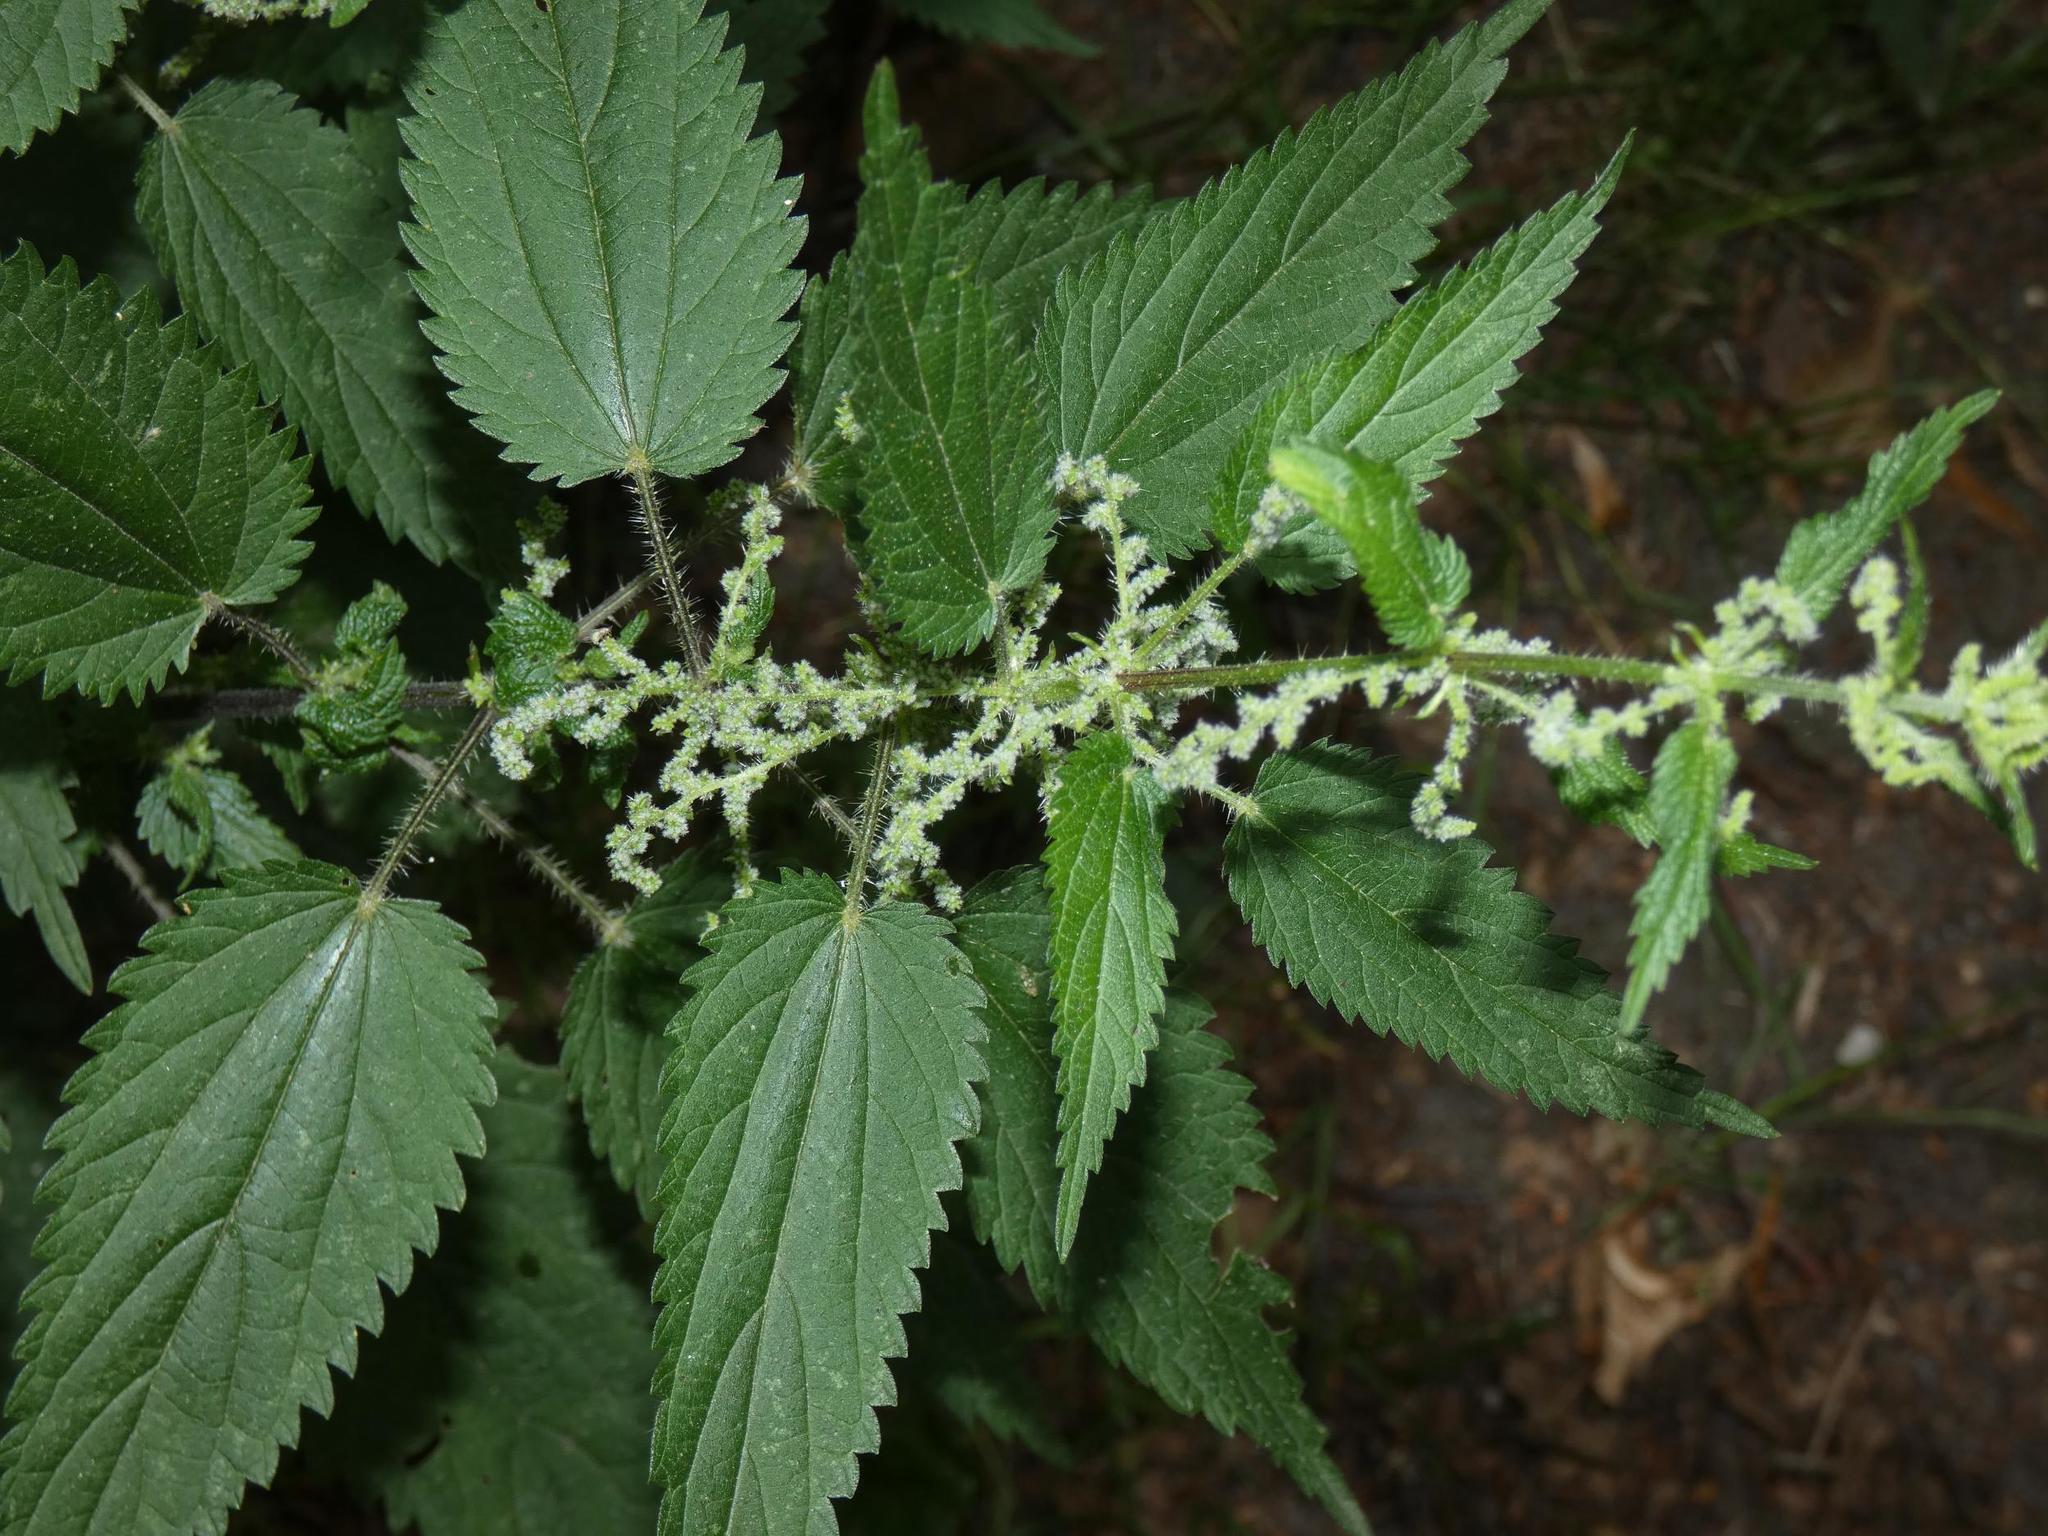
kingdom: Plantae
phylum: Tracheophyta
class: Magnoliopsida
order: Rosales
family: Urticaceae
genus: Urtica
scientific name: Urtica dioica
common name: Common nettle
